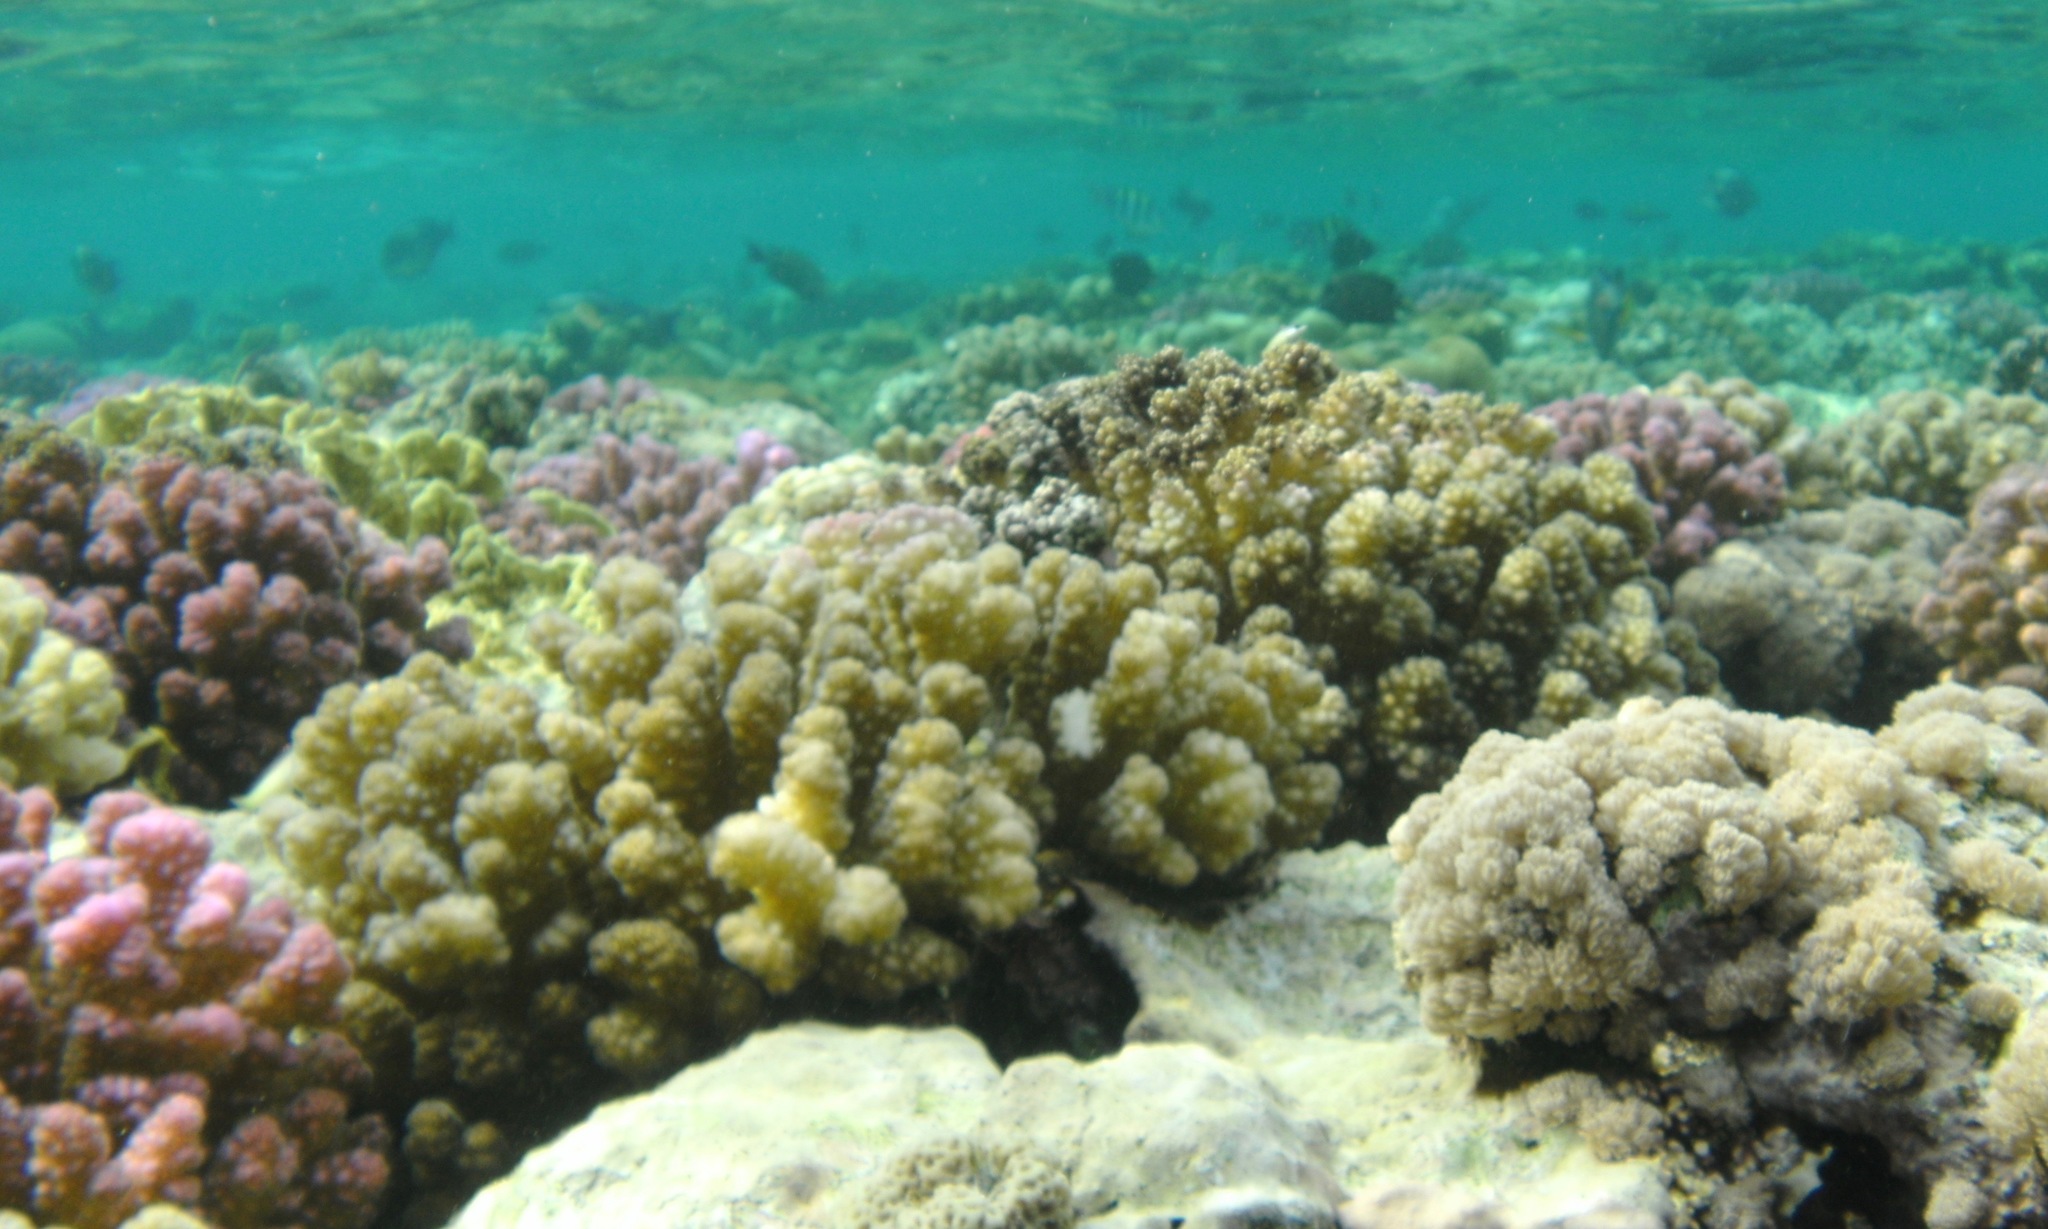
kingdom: Animalia
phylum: Cnidaria
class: Anthozoa
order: Scleractinia
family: Pocilloporidae
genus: Pocillopora
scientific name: Pocillopora verrucosa
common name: Cauliflower coral
